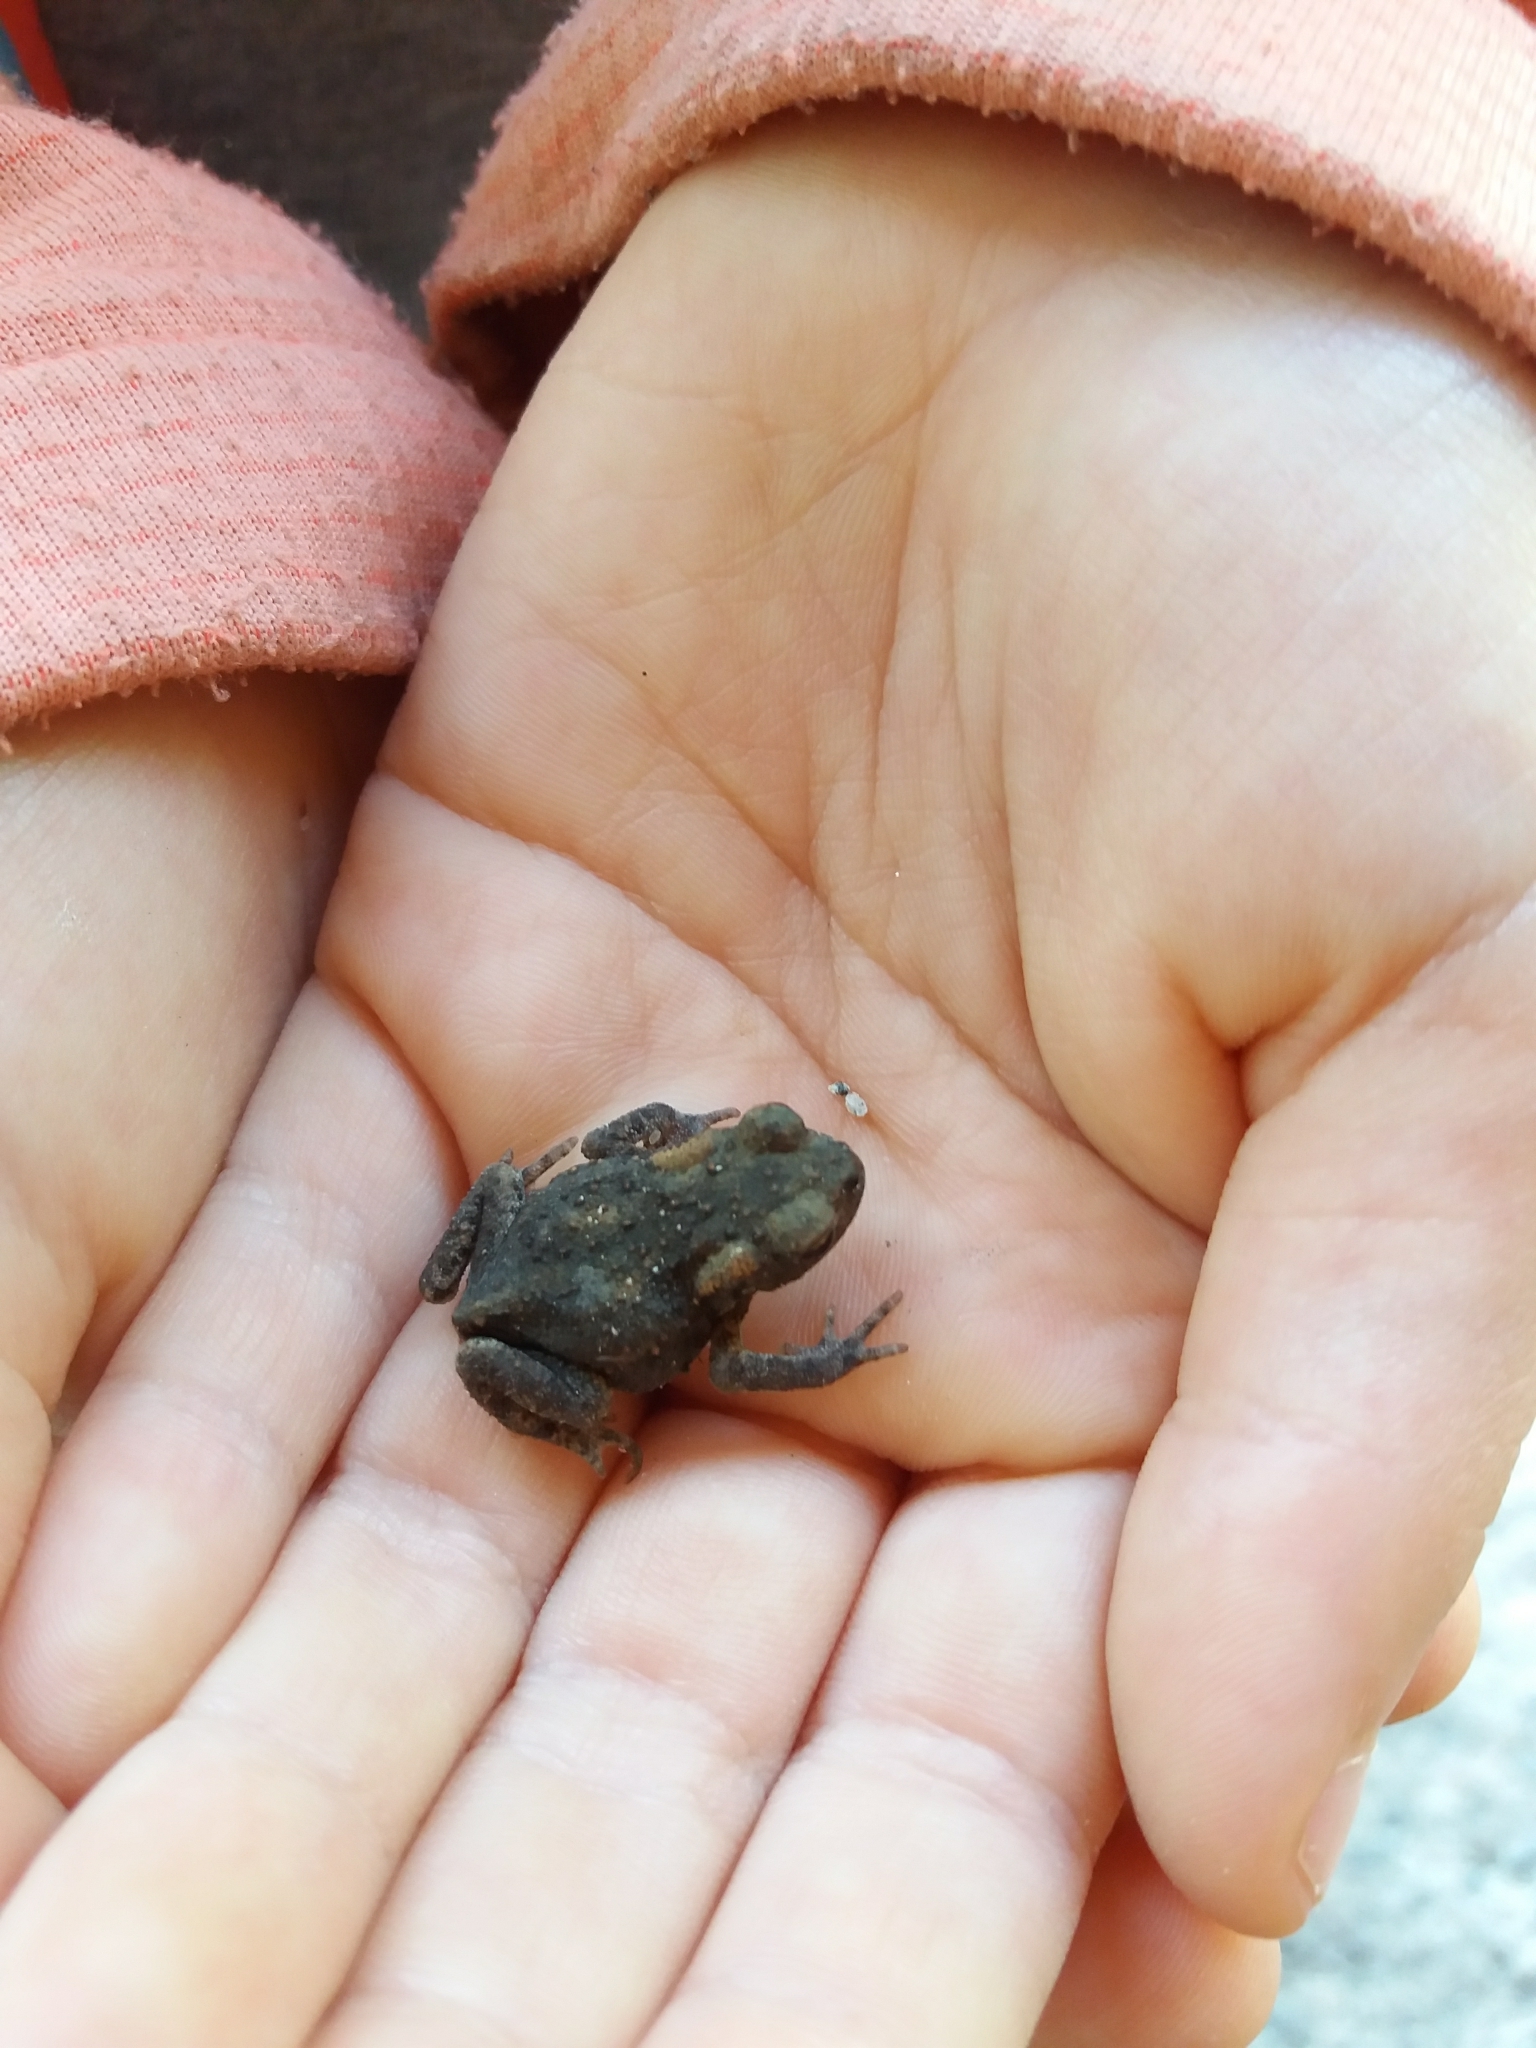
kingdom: Animalia
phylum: Chordata
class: Amphibia
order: Anura
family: Bufonidae
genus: Bufo
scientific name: Bufo bufo
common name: Common toad
